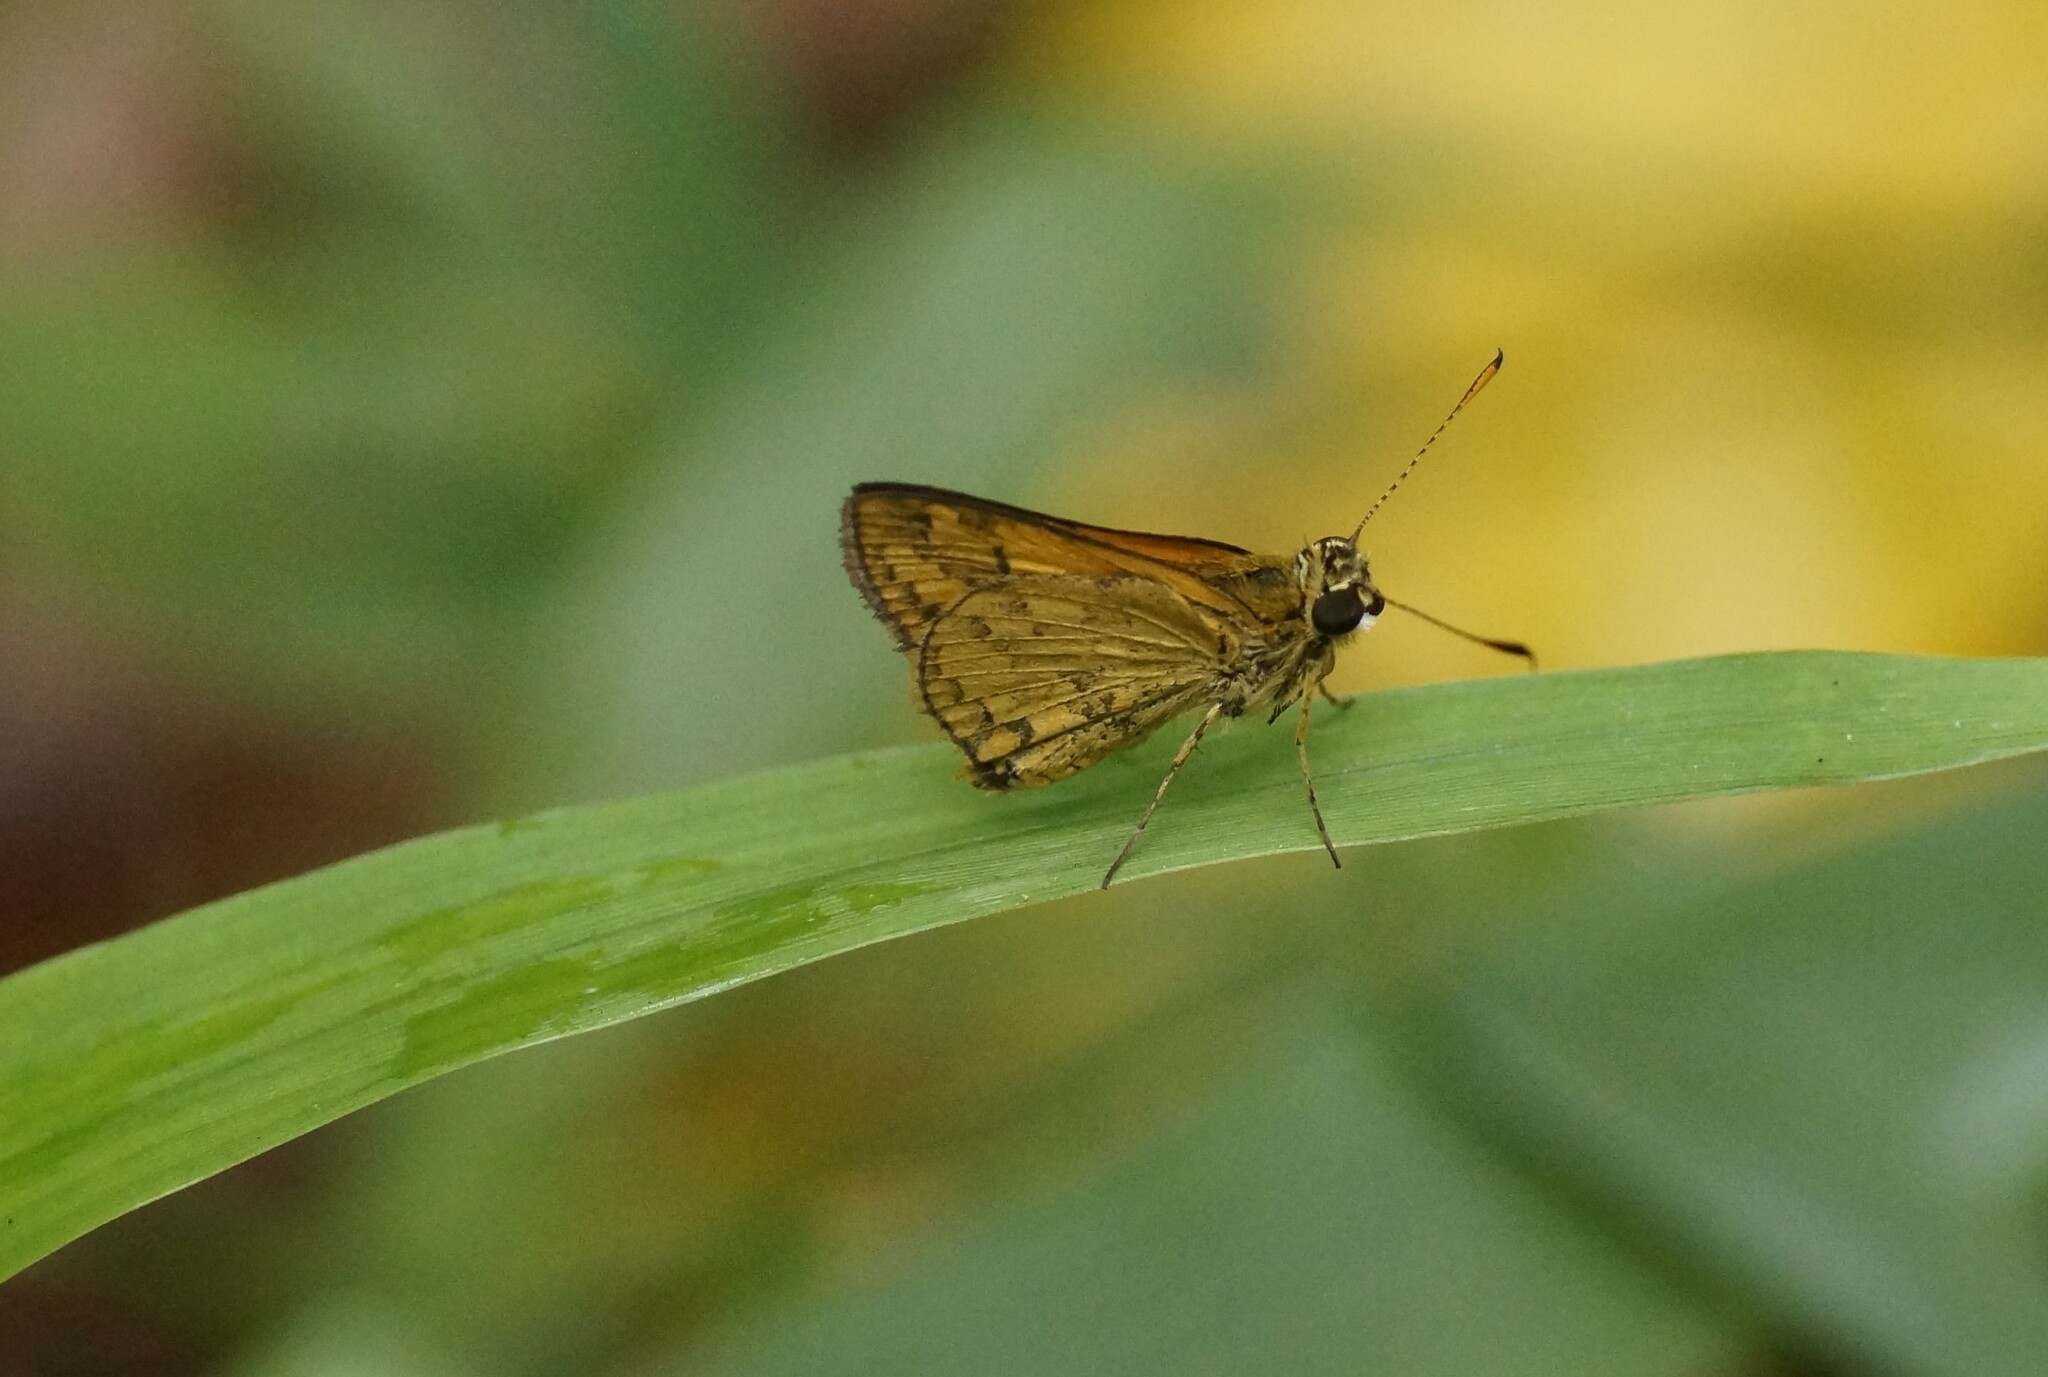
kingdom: Animalia
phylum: Arthropoda
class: Insecta
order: Lepidoptera
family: Hesperiidae
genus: Suniana
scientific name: Suniana sunias
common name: Wide-brand grass-dart
